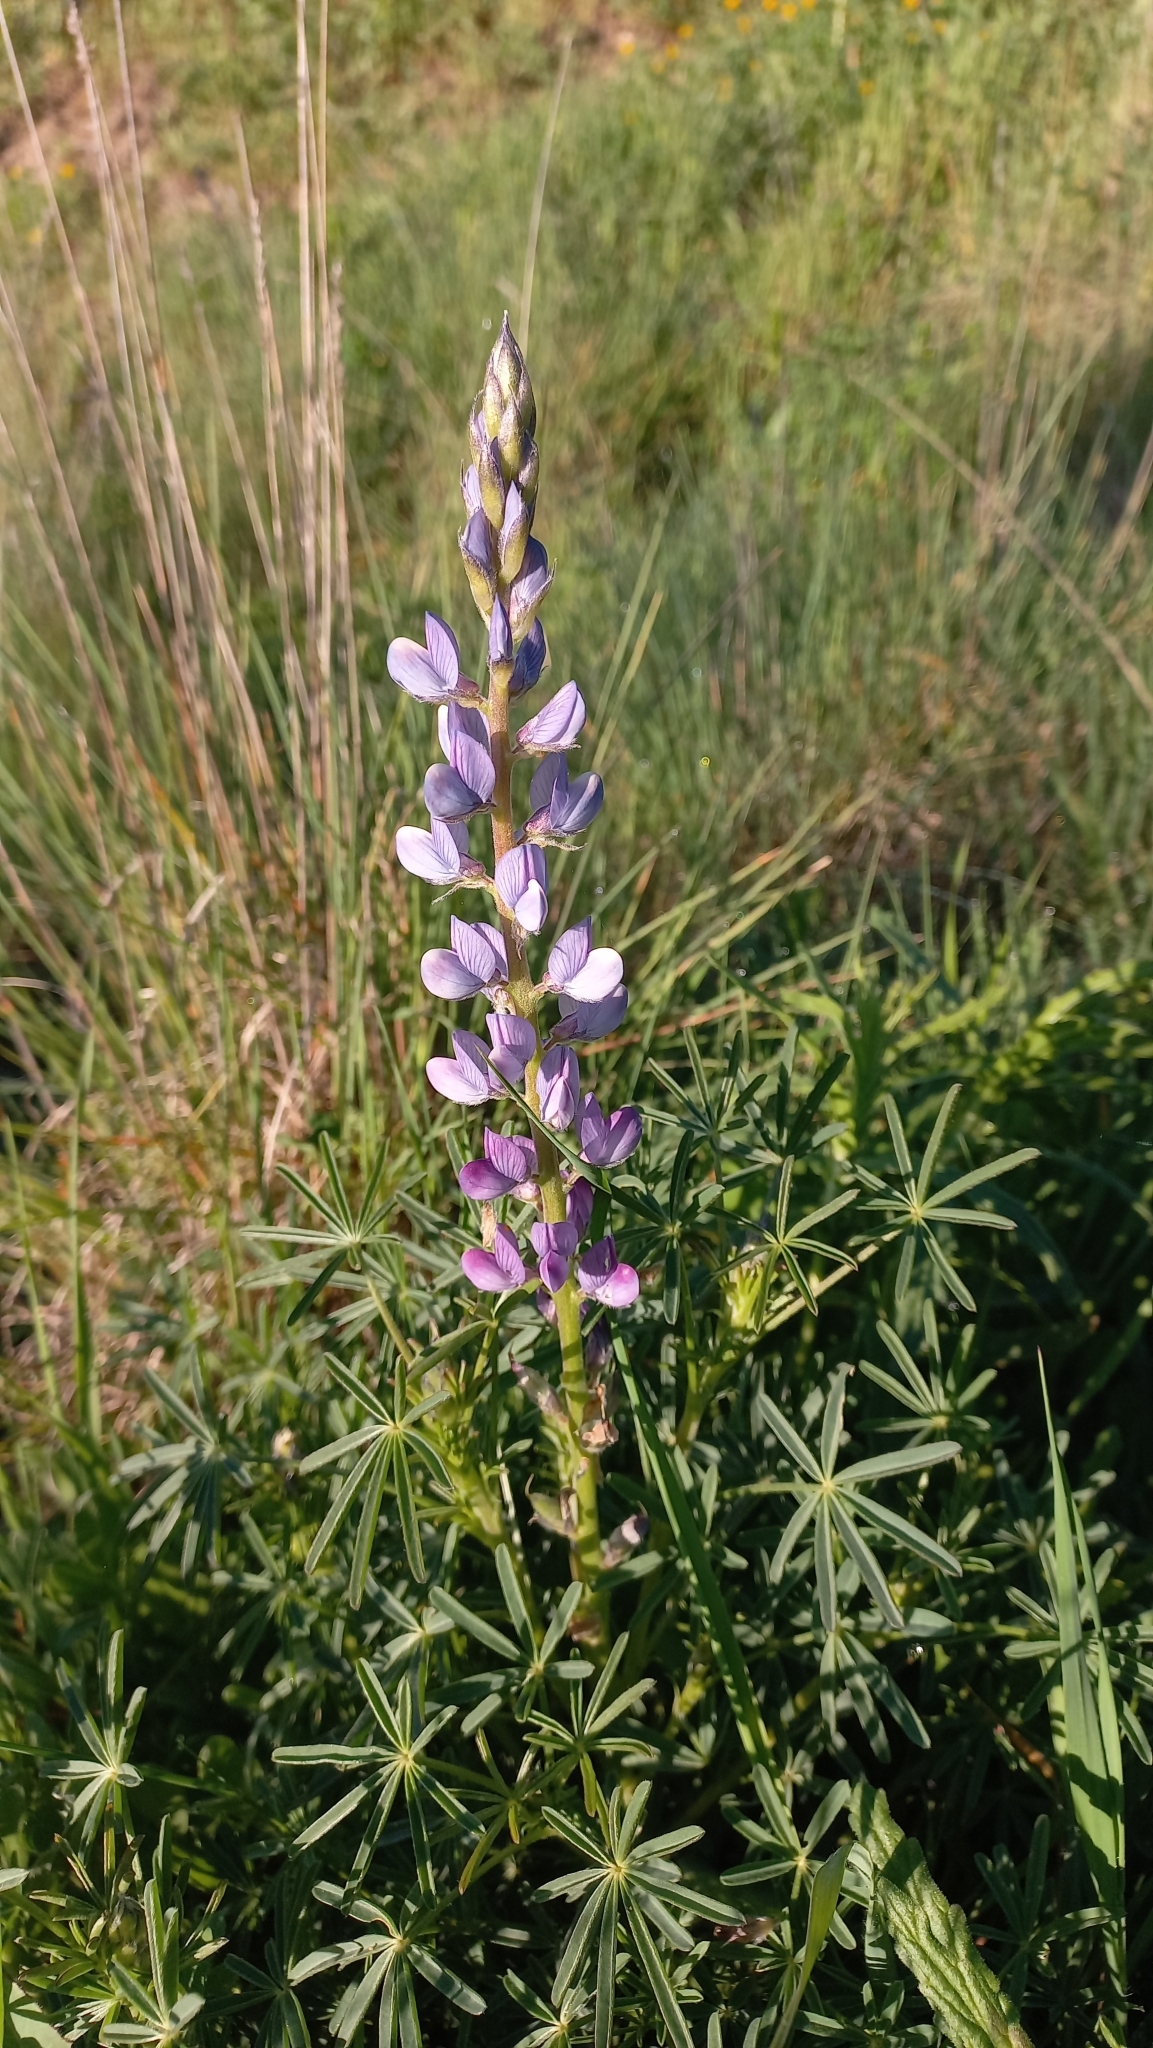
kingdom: Plantae
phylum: Tracheophyta
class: Magnoliopsida
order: Fabales
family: Fabaceae
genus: Lupinus
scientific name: Lupinus angustifolius
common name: Narrow-leaved lupin
